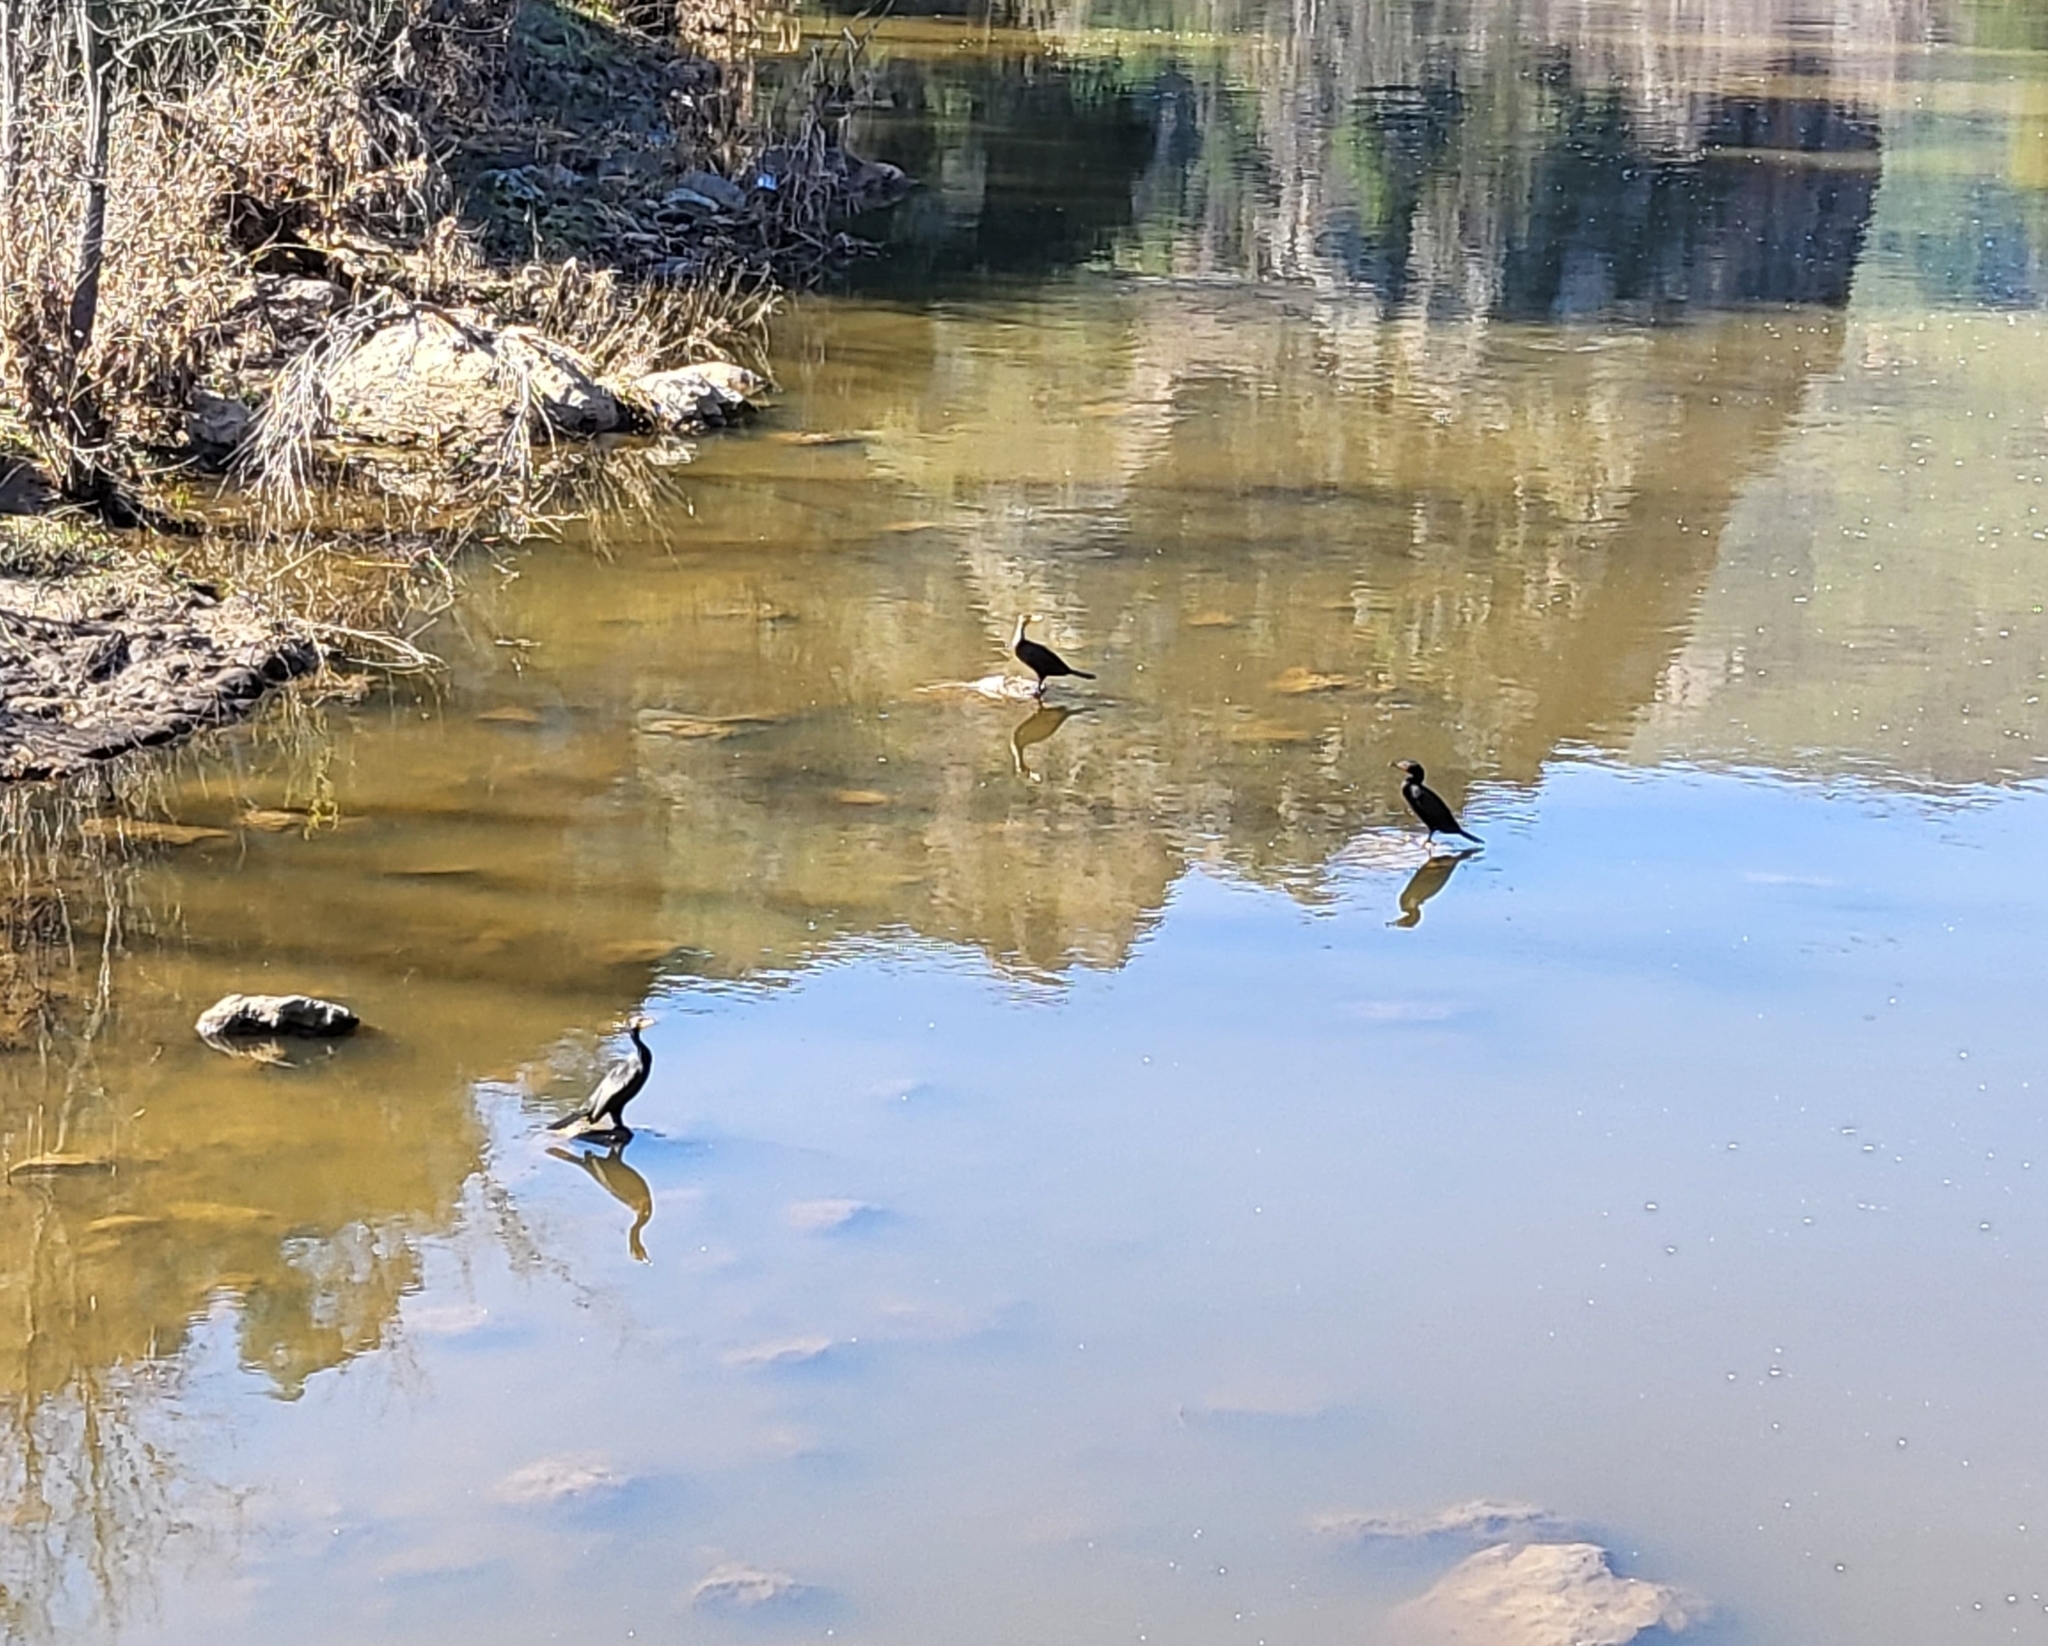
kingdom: Animalia
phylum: Chordata
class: Aves
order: Suliformes
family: Phalacrocoracidae
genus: Phalacrocorax
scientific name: Phalacrocorax auritus
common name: Double-crested cormorant
